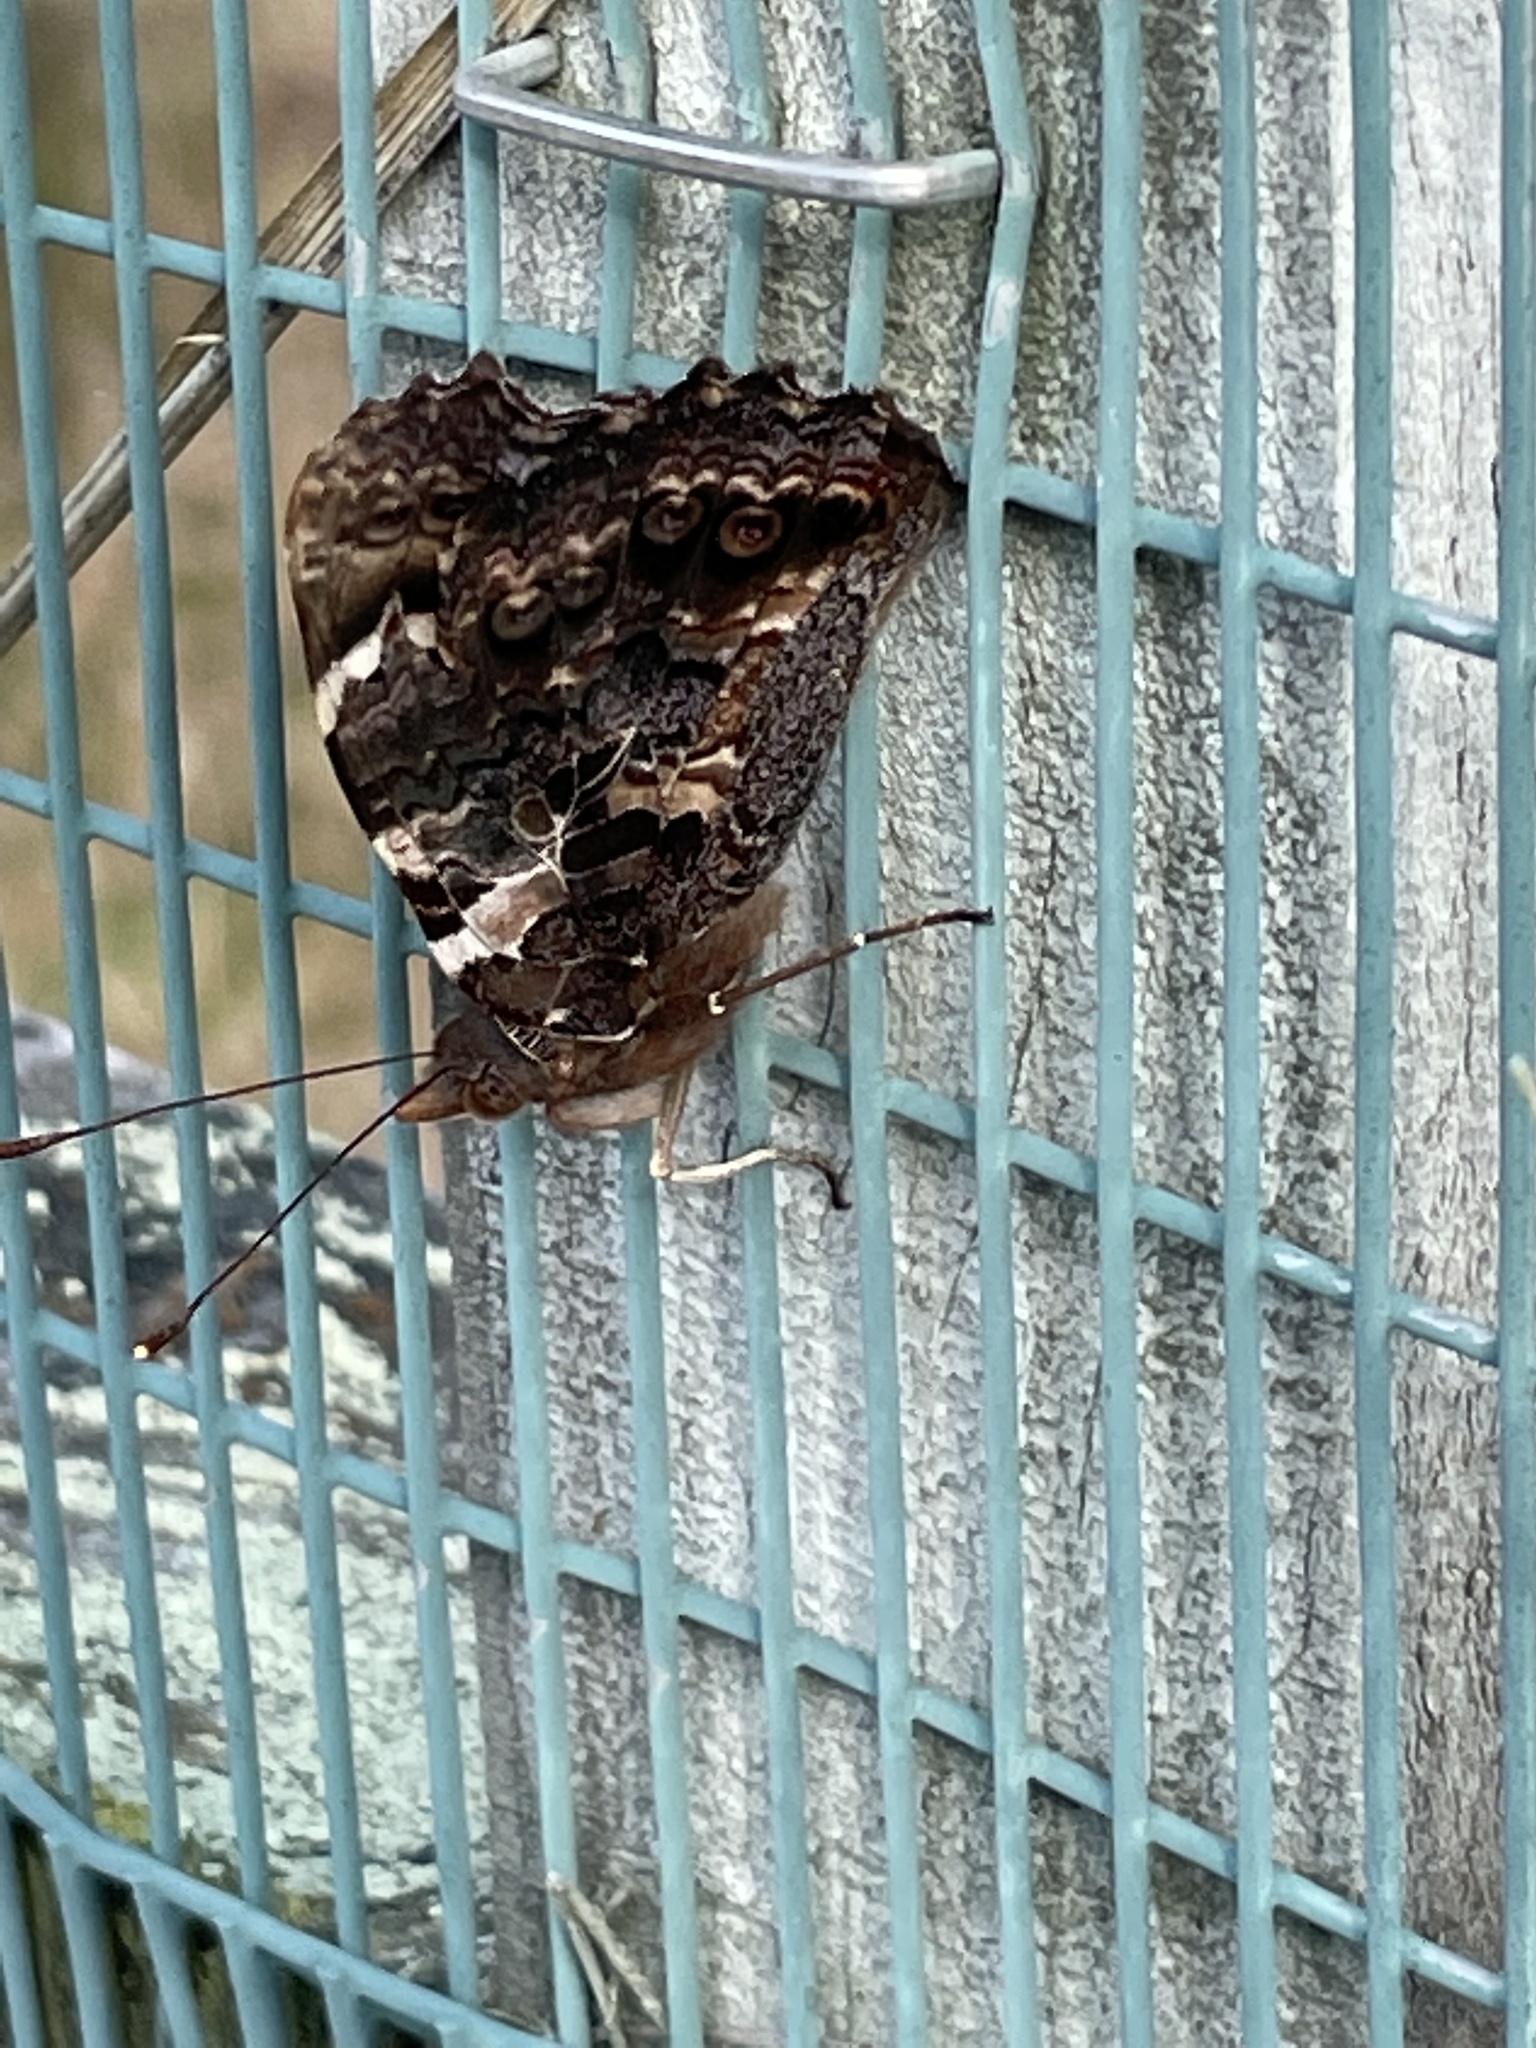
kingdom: Animalia
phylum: Arthropoda
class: Insecta
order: Lepidoptera
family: Nymphalidae
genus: Vanessa
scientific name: Vanessa gonerilla
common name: New zealand red admiral
